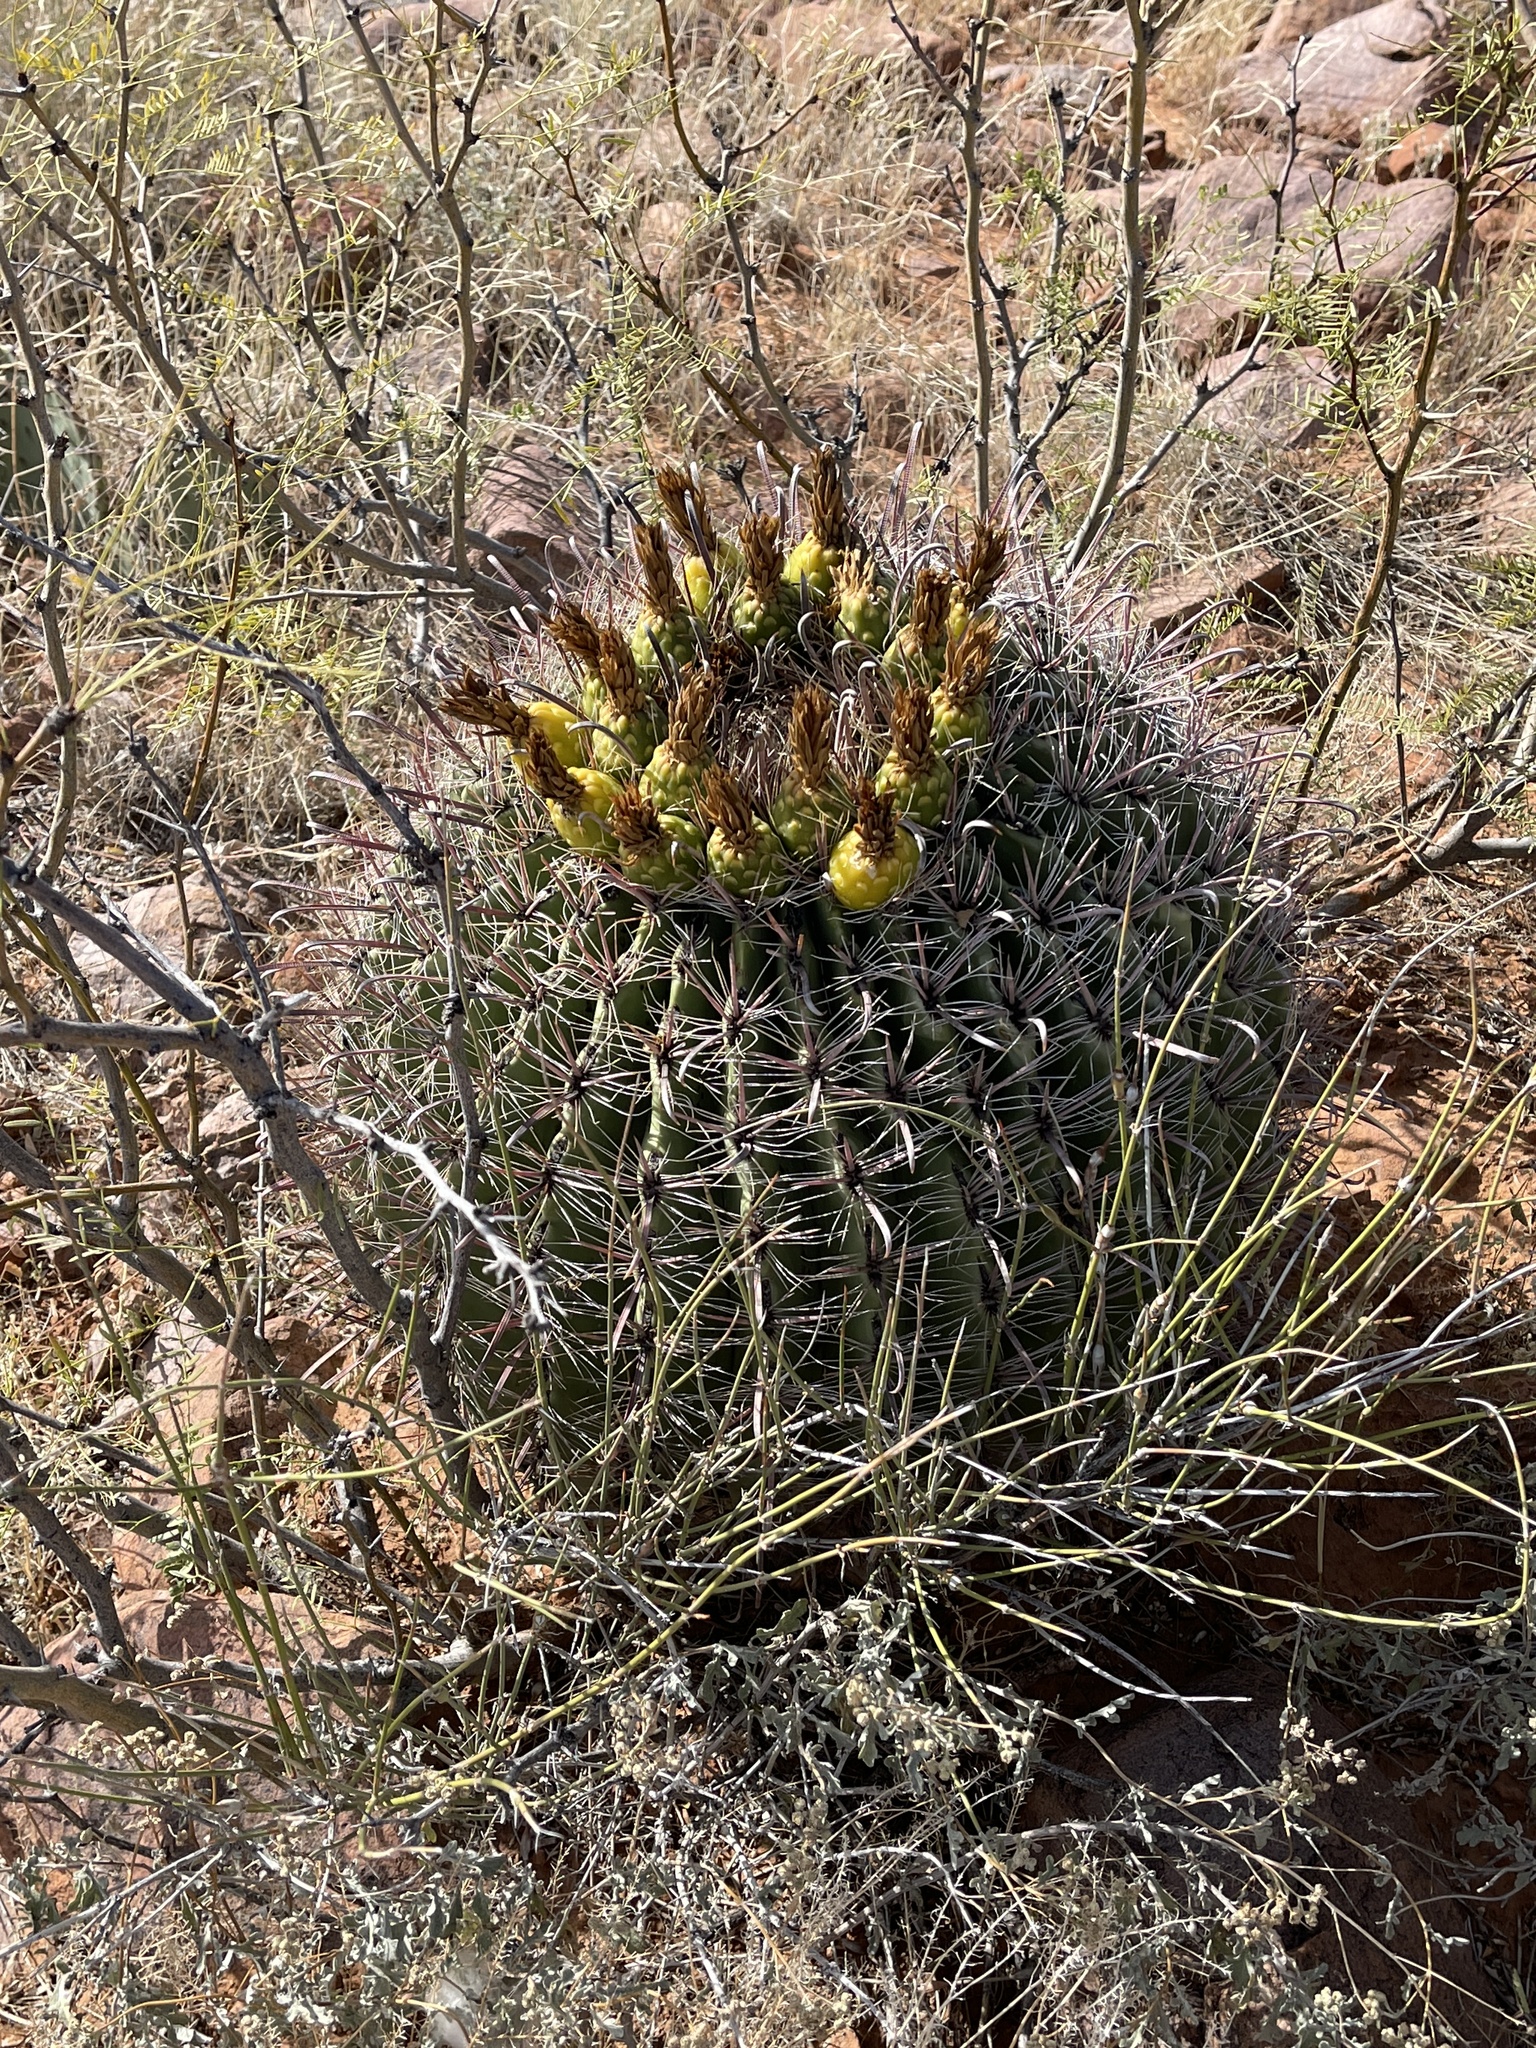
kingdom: Plantae
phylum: Tracheophyta
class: Magnoliopsida
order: Caryophyllales
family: Cactaceae
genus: Ferocactus
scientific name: Ferocactus wislizeni
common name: Candy barrel cactus
